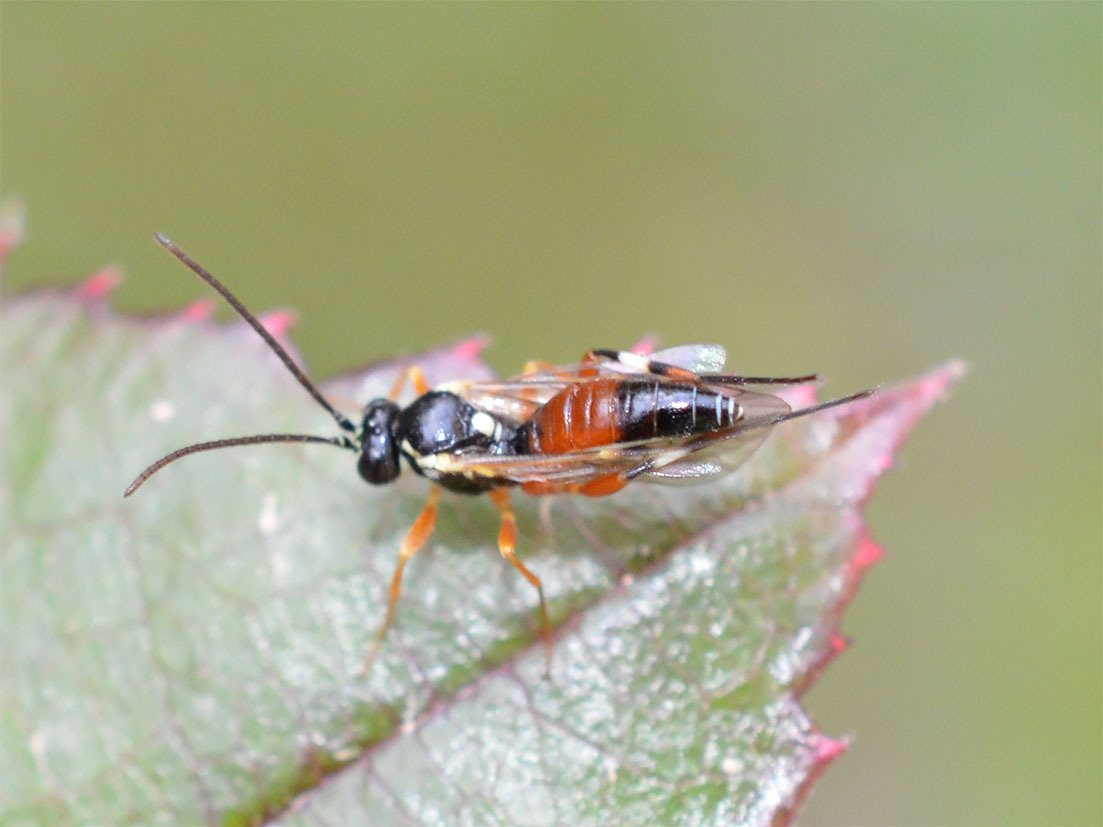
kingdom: Animalia
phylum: Arthropoda
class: Insecta
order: Hymenoptera
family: Ichneumonidae
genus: Diplazon
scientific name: Diplazon laetatorius
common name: Parasitoid wasp
